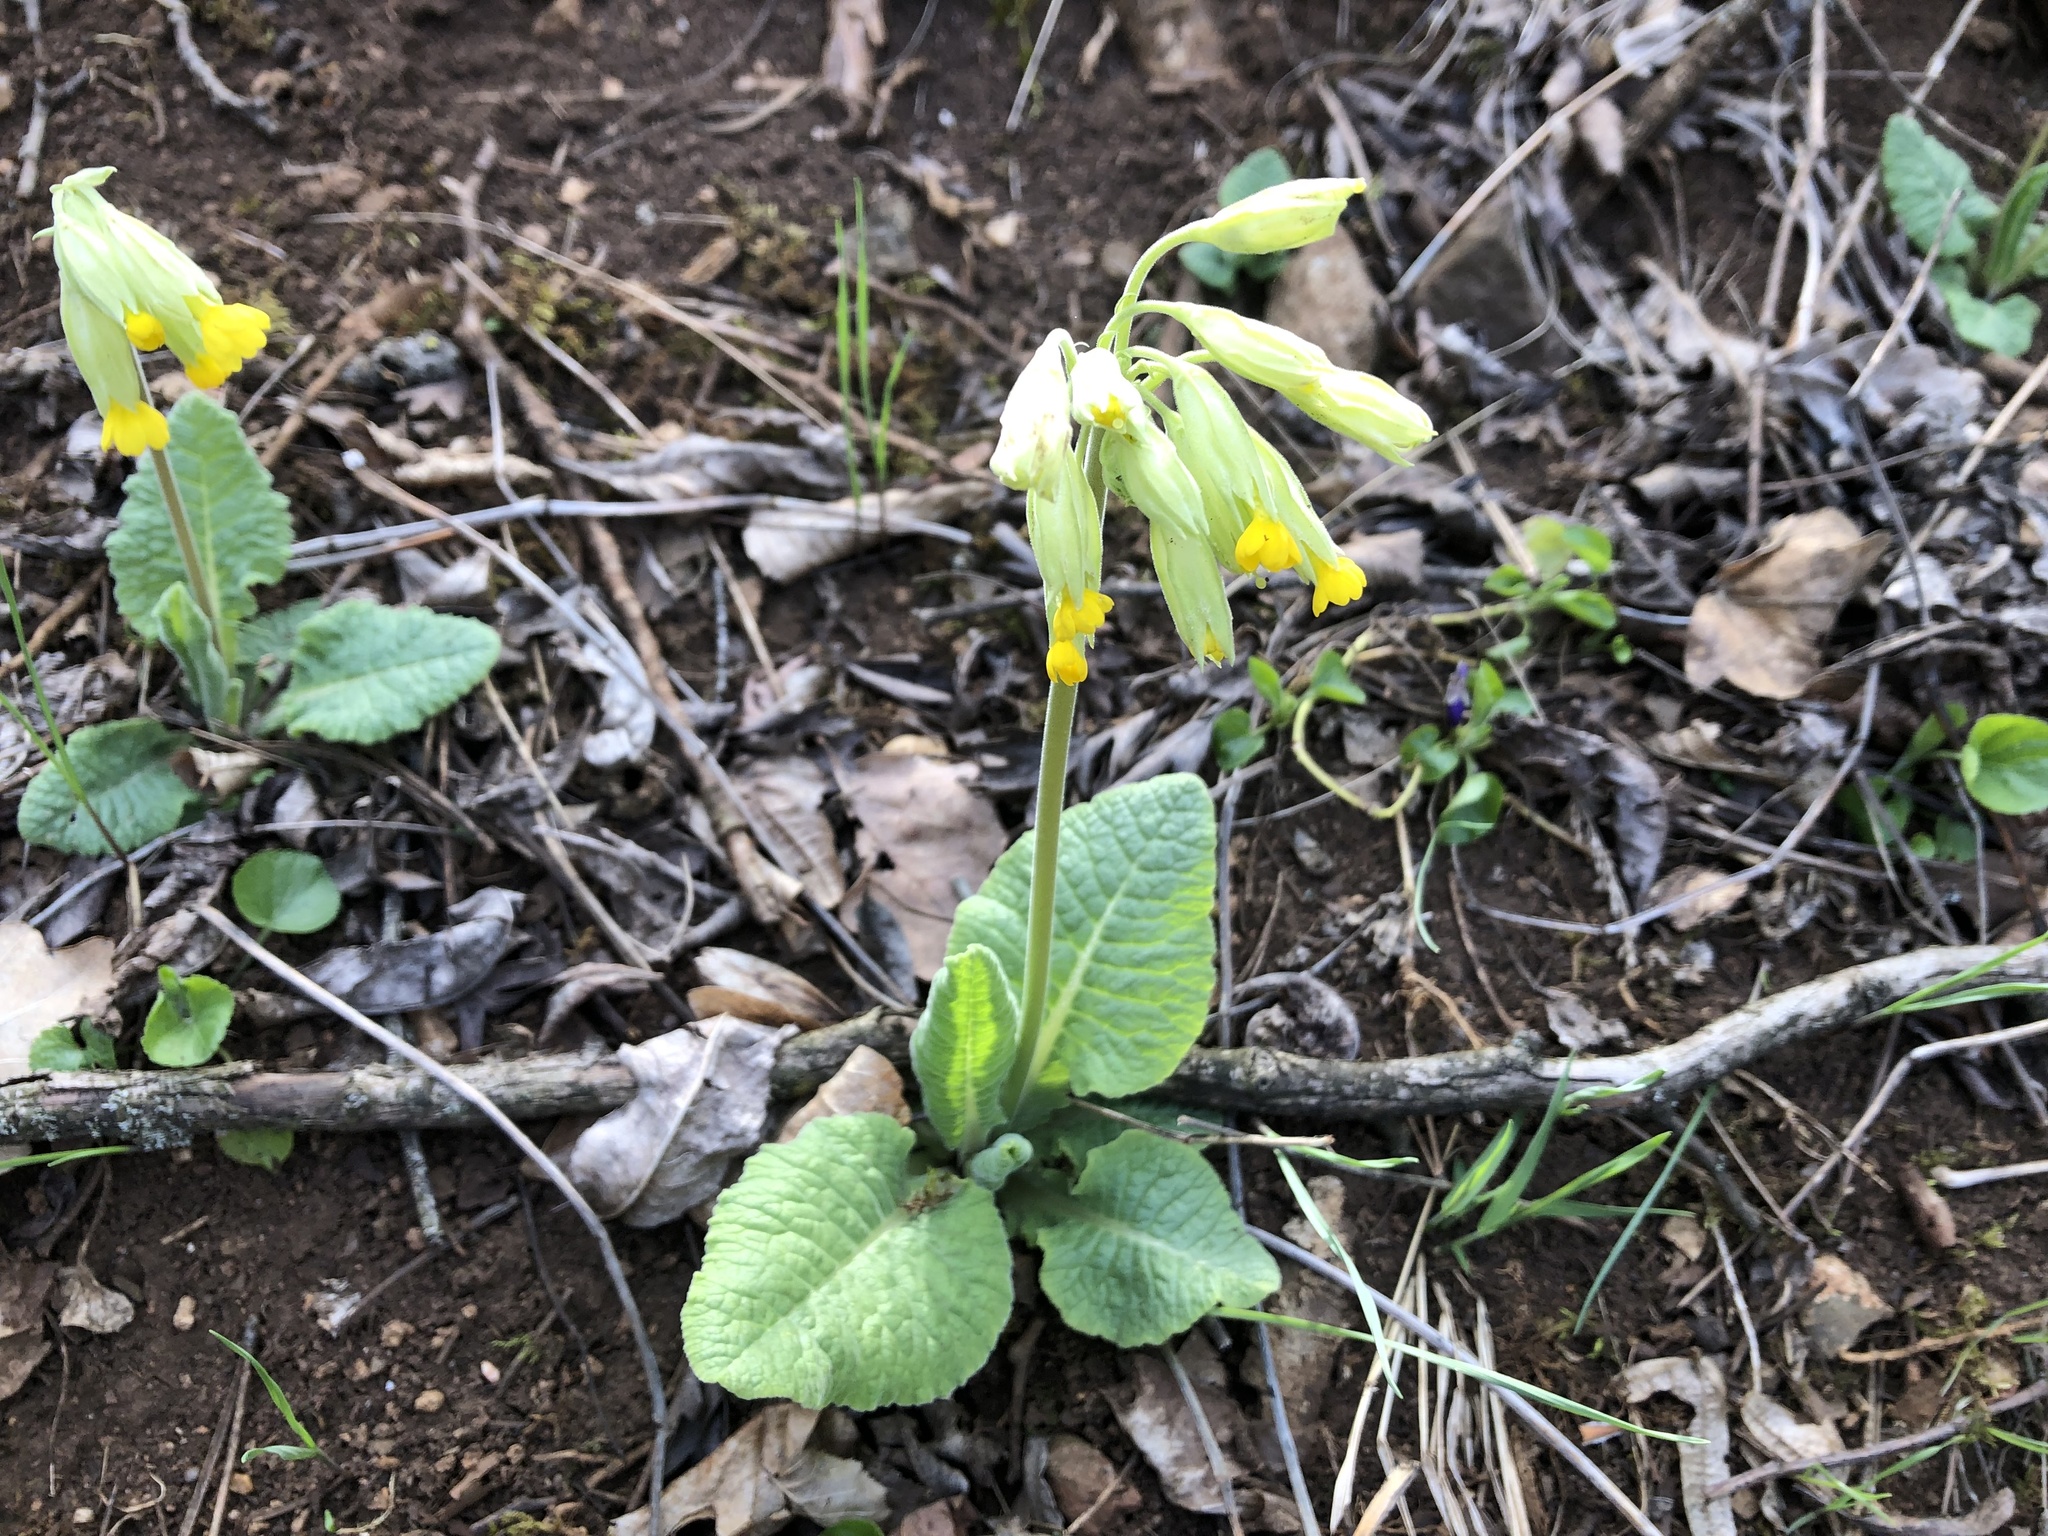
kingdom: Plantae
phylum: Tracheophyta
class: Magnoliopsida
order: Ericales
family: Primulaceae
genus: Primula
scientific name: Primula veris
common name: Cowslip
